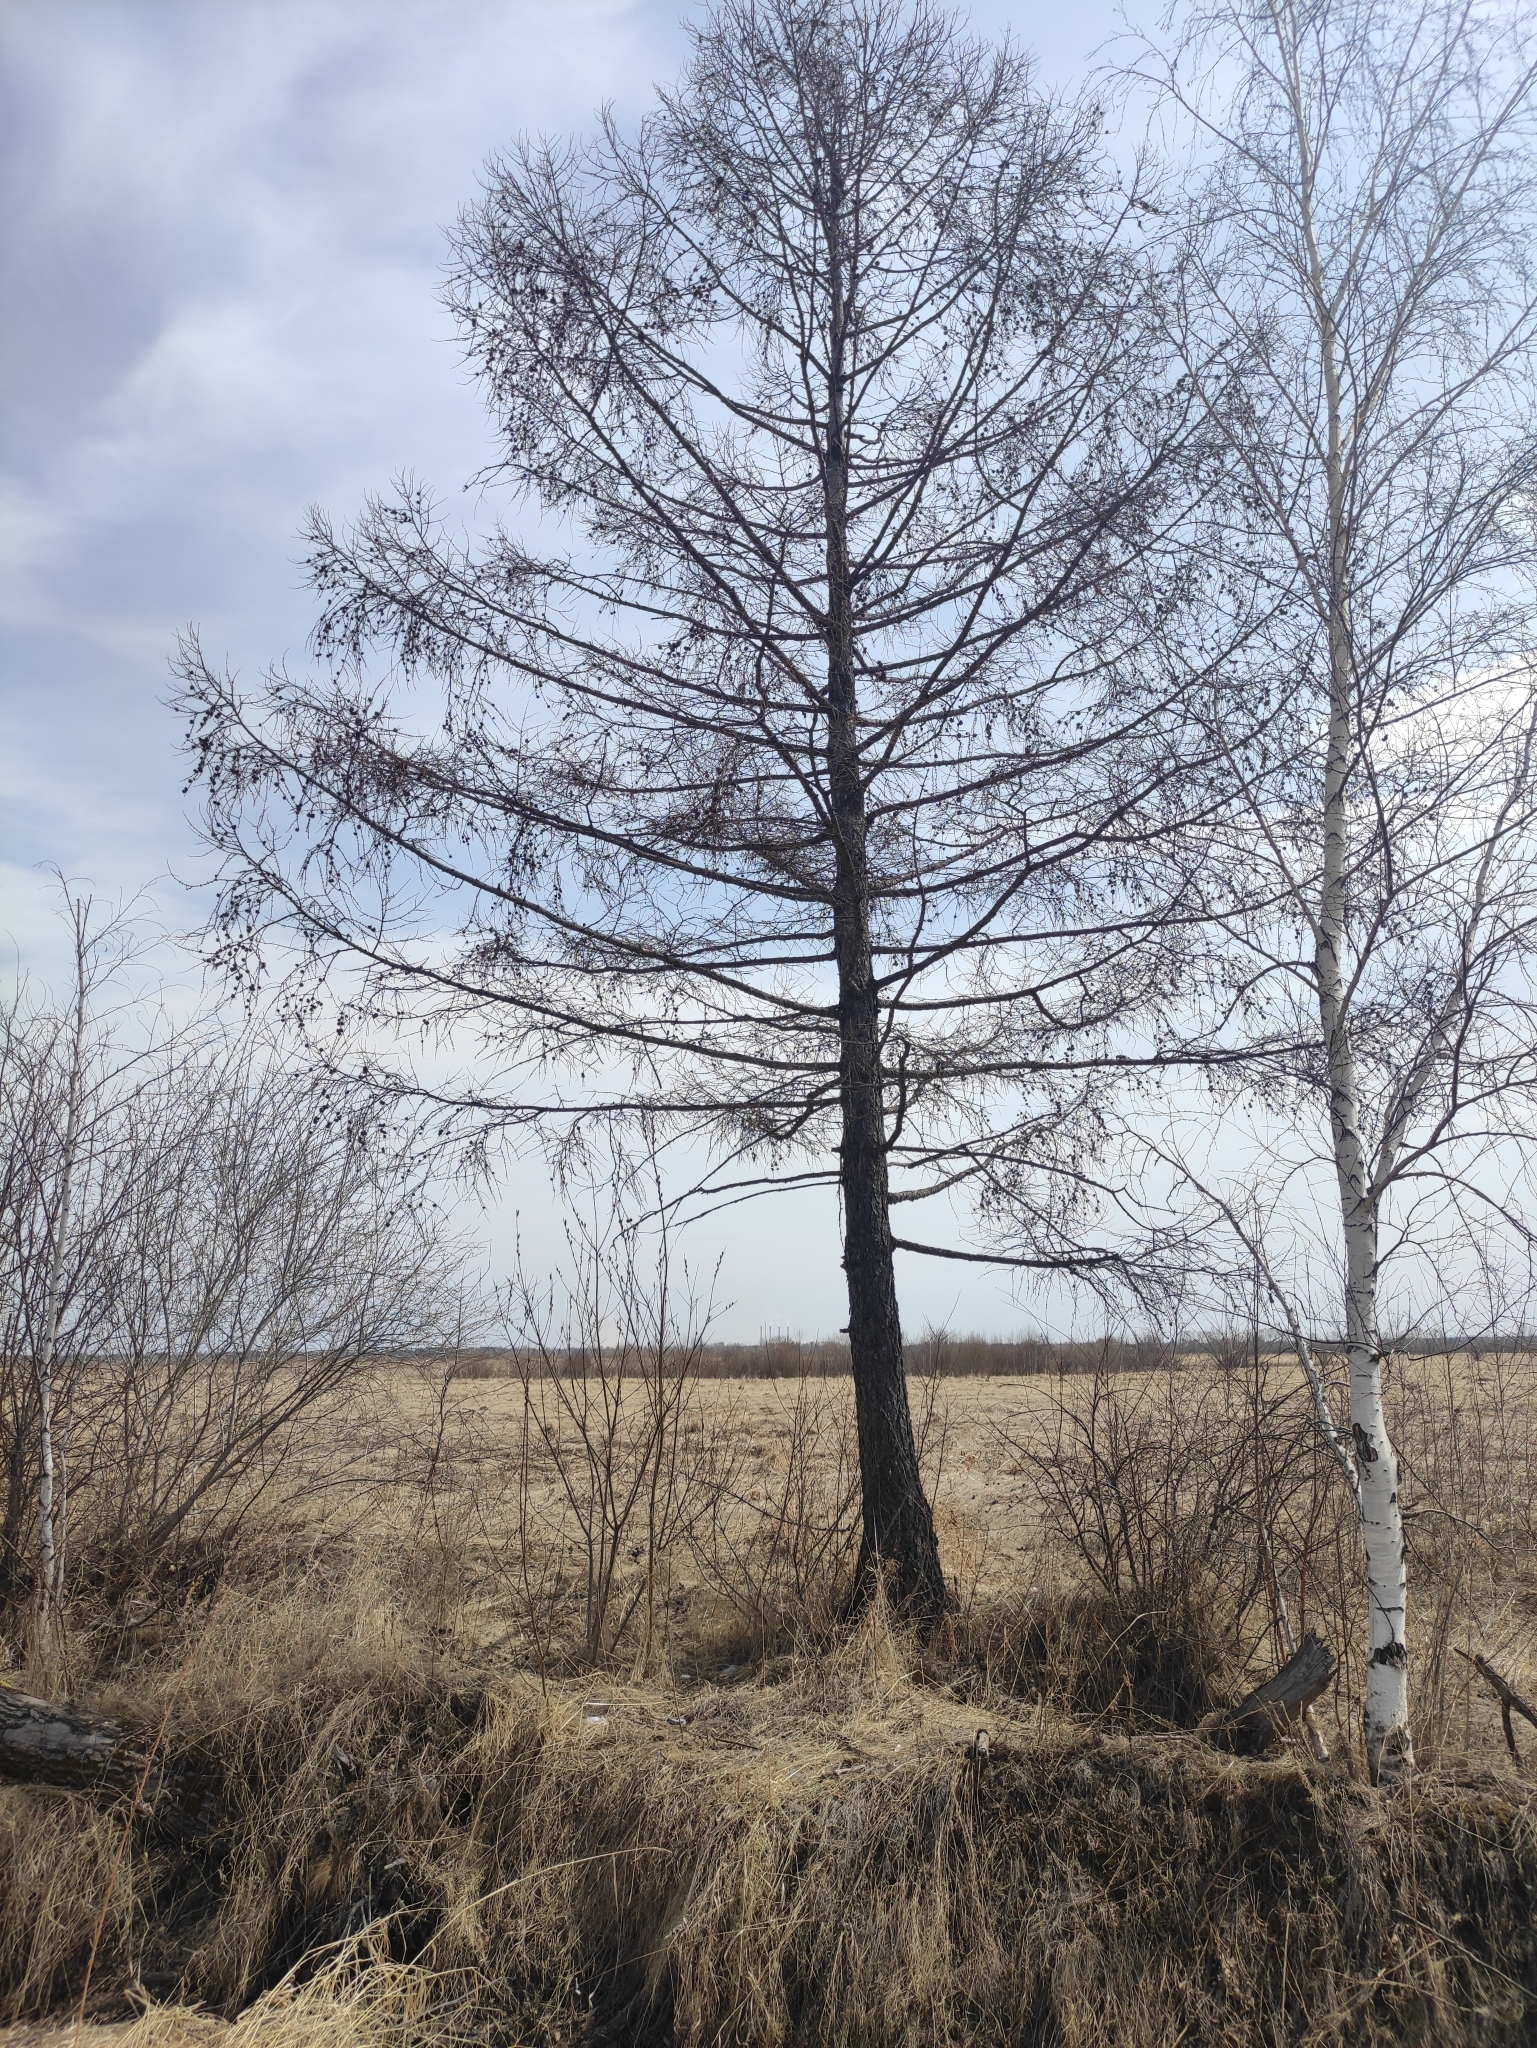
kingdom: Plantae
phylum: Tracheophyta
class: Pinopsida
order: Pinales
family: Pinaceae
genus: Larix
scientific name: Larix sibirica
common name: Siberian larch
